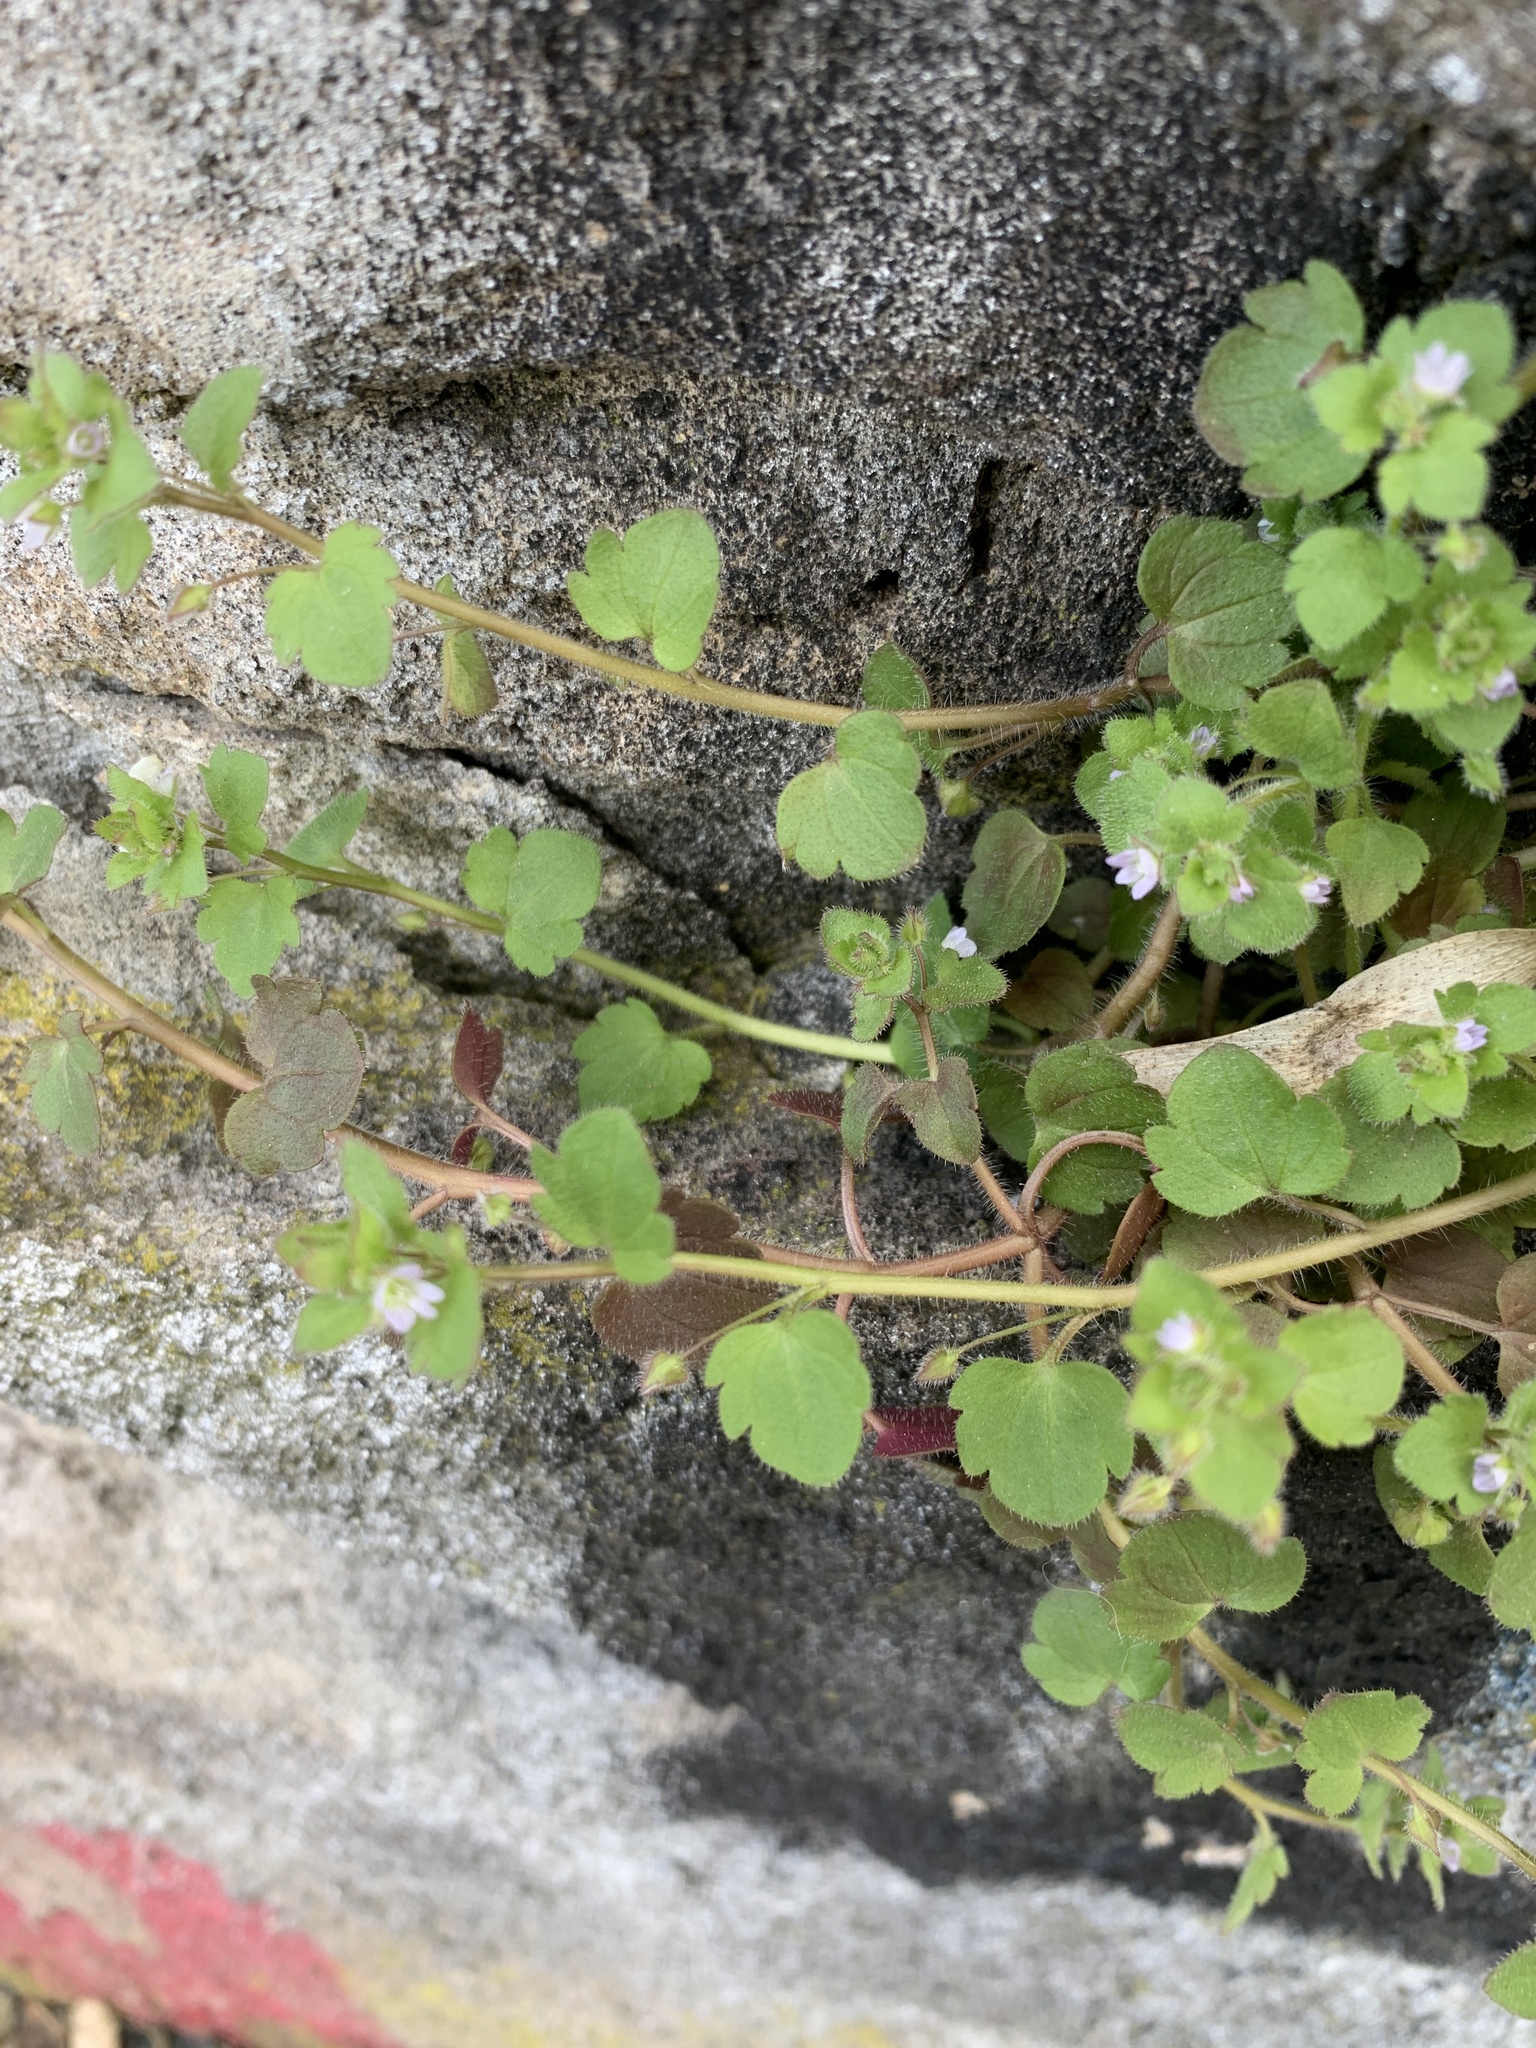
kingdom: Plantae
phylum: Tracheophyta
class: Magnoliopsida
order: Lamiales
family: Plantaginaceae
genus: Veronica
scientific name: Veronica sublobata
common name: False ivy-leaved speedwell
